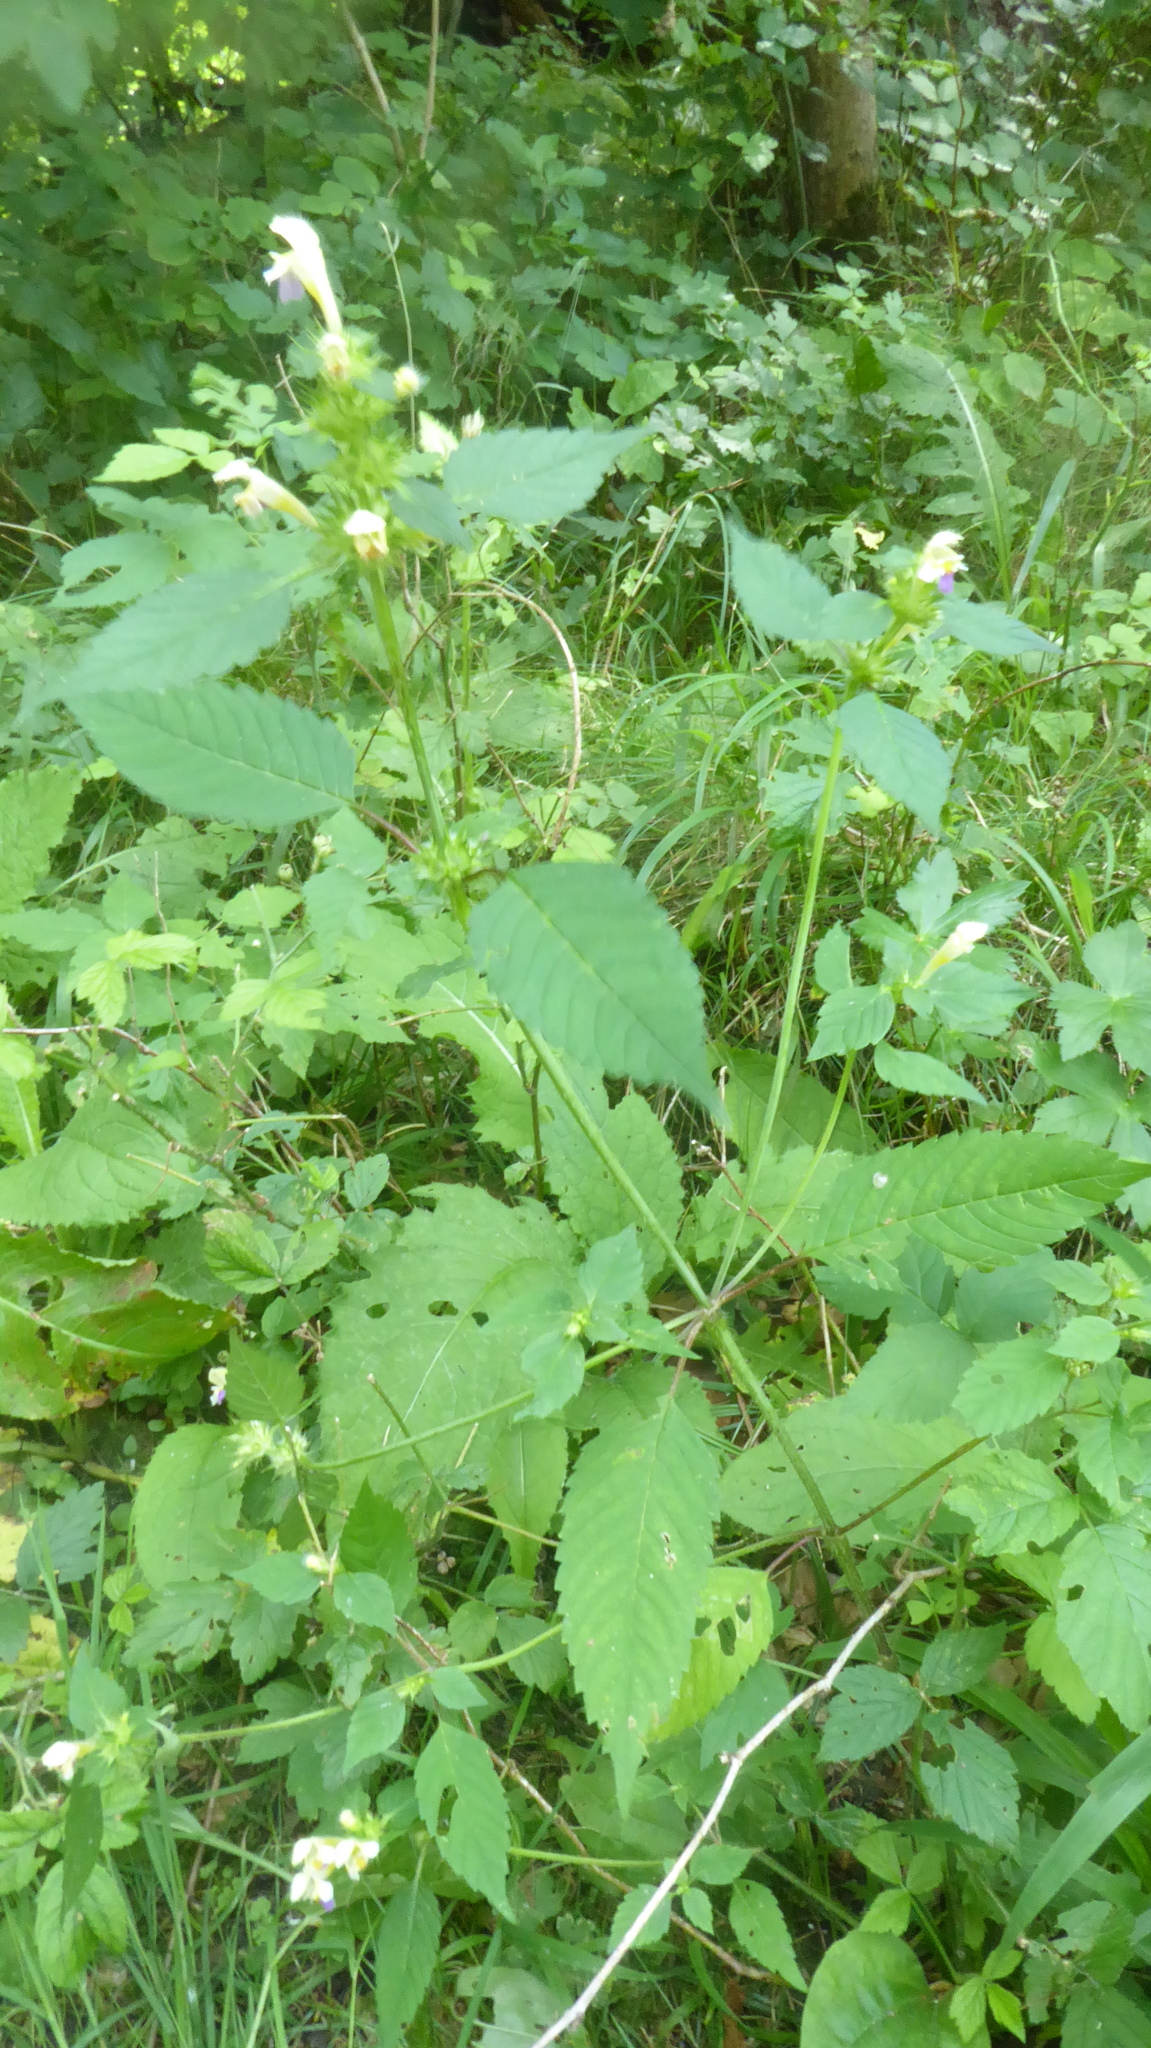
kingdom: Plantae
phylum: Tracheophyta
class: Magnoliopsida
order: Lamiales
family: Lamiaceae
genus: Galeopsis
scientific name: Galeopsis speciosa
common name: Large-flowered hemp-nettle
